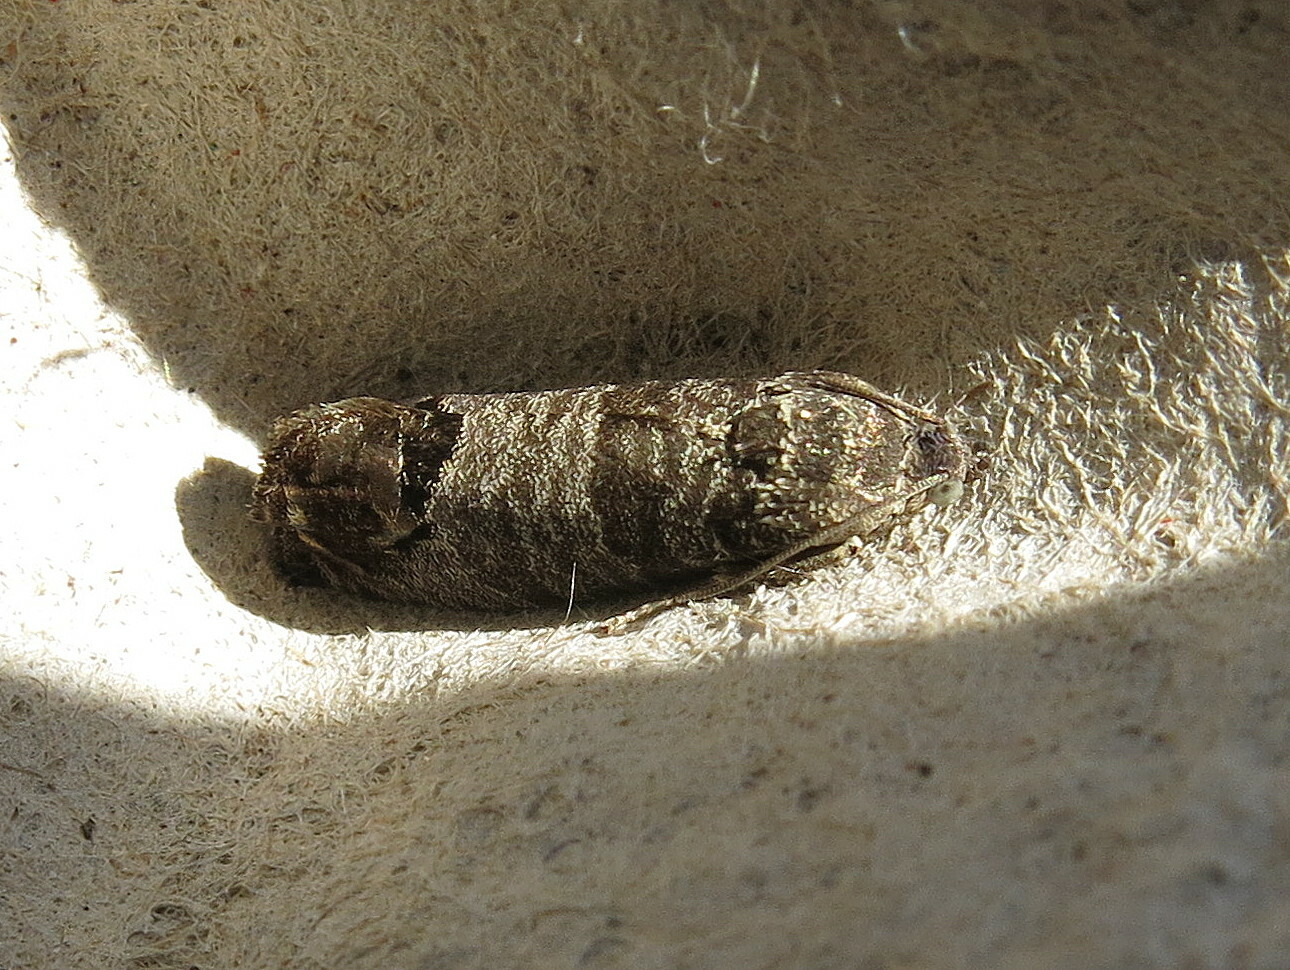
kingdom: Animalia
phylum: Arthropoda
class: Insecta
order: Lepidoptera
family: Tortricidae
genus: Cydia
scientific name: Cydia pomonella
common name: Codling moth
